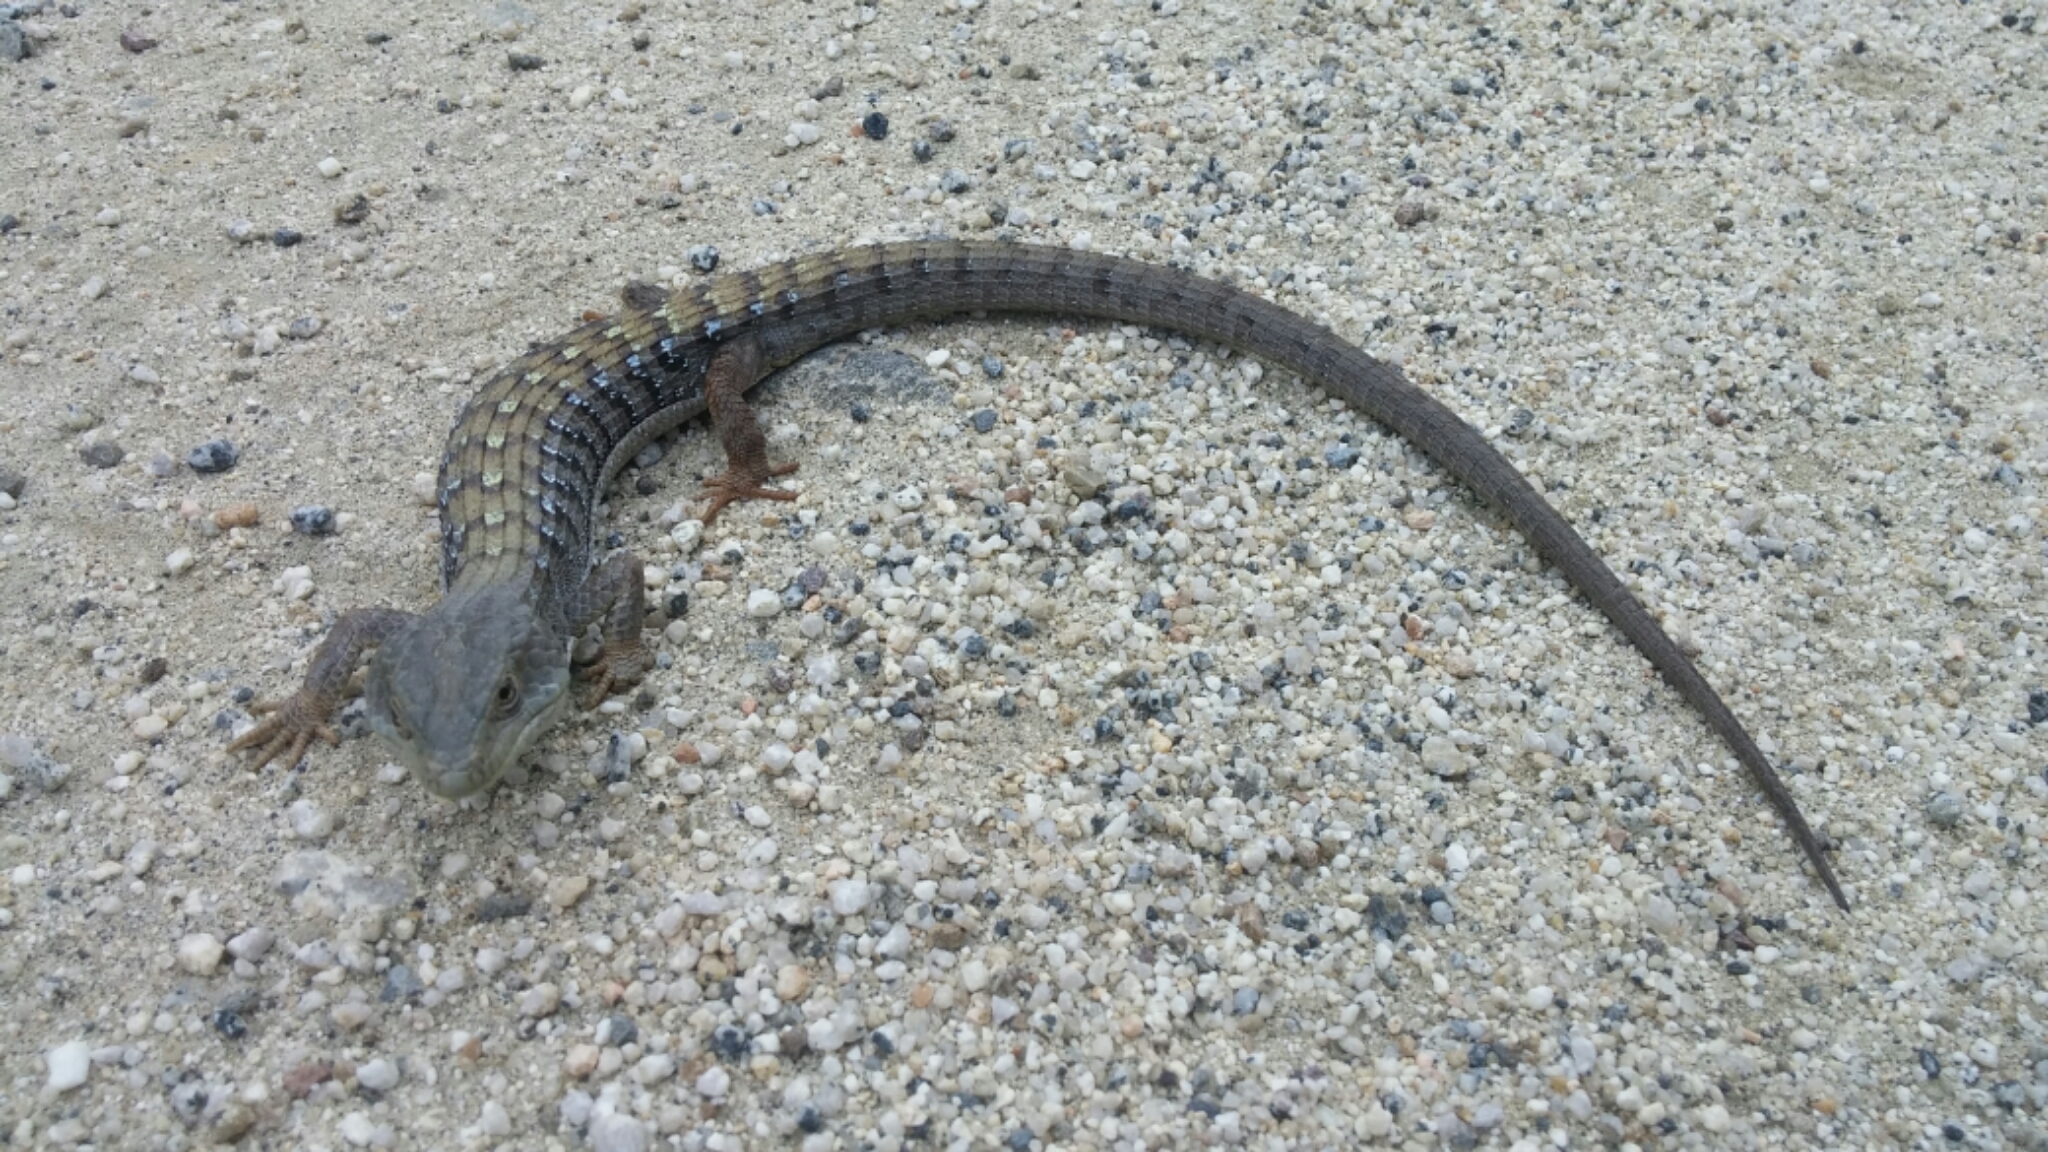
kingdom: Animalia
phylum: Chordata
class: Squamata
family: Anguidae
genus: Elgaria
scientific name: Elgaria multicarinata
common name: Southern alligator lizard
